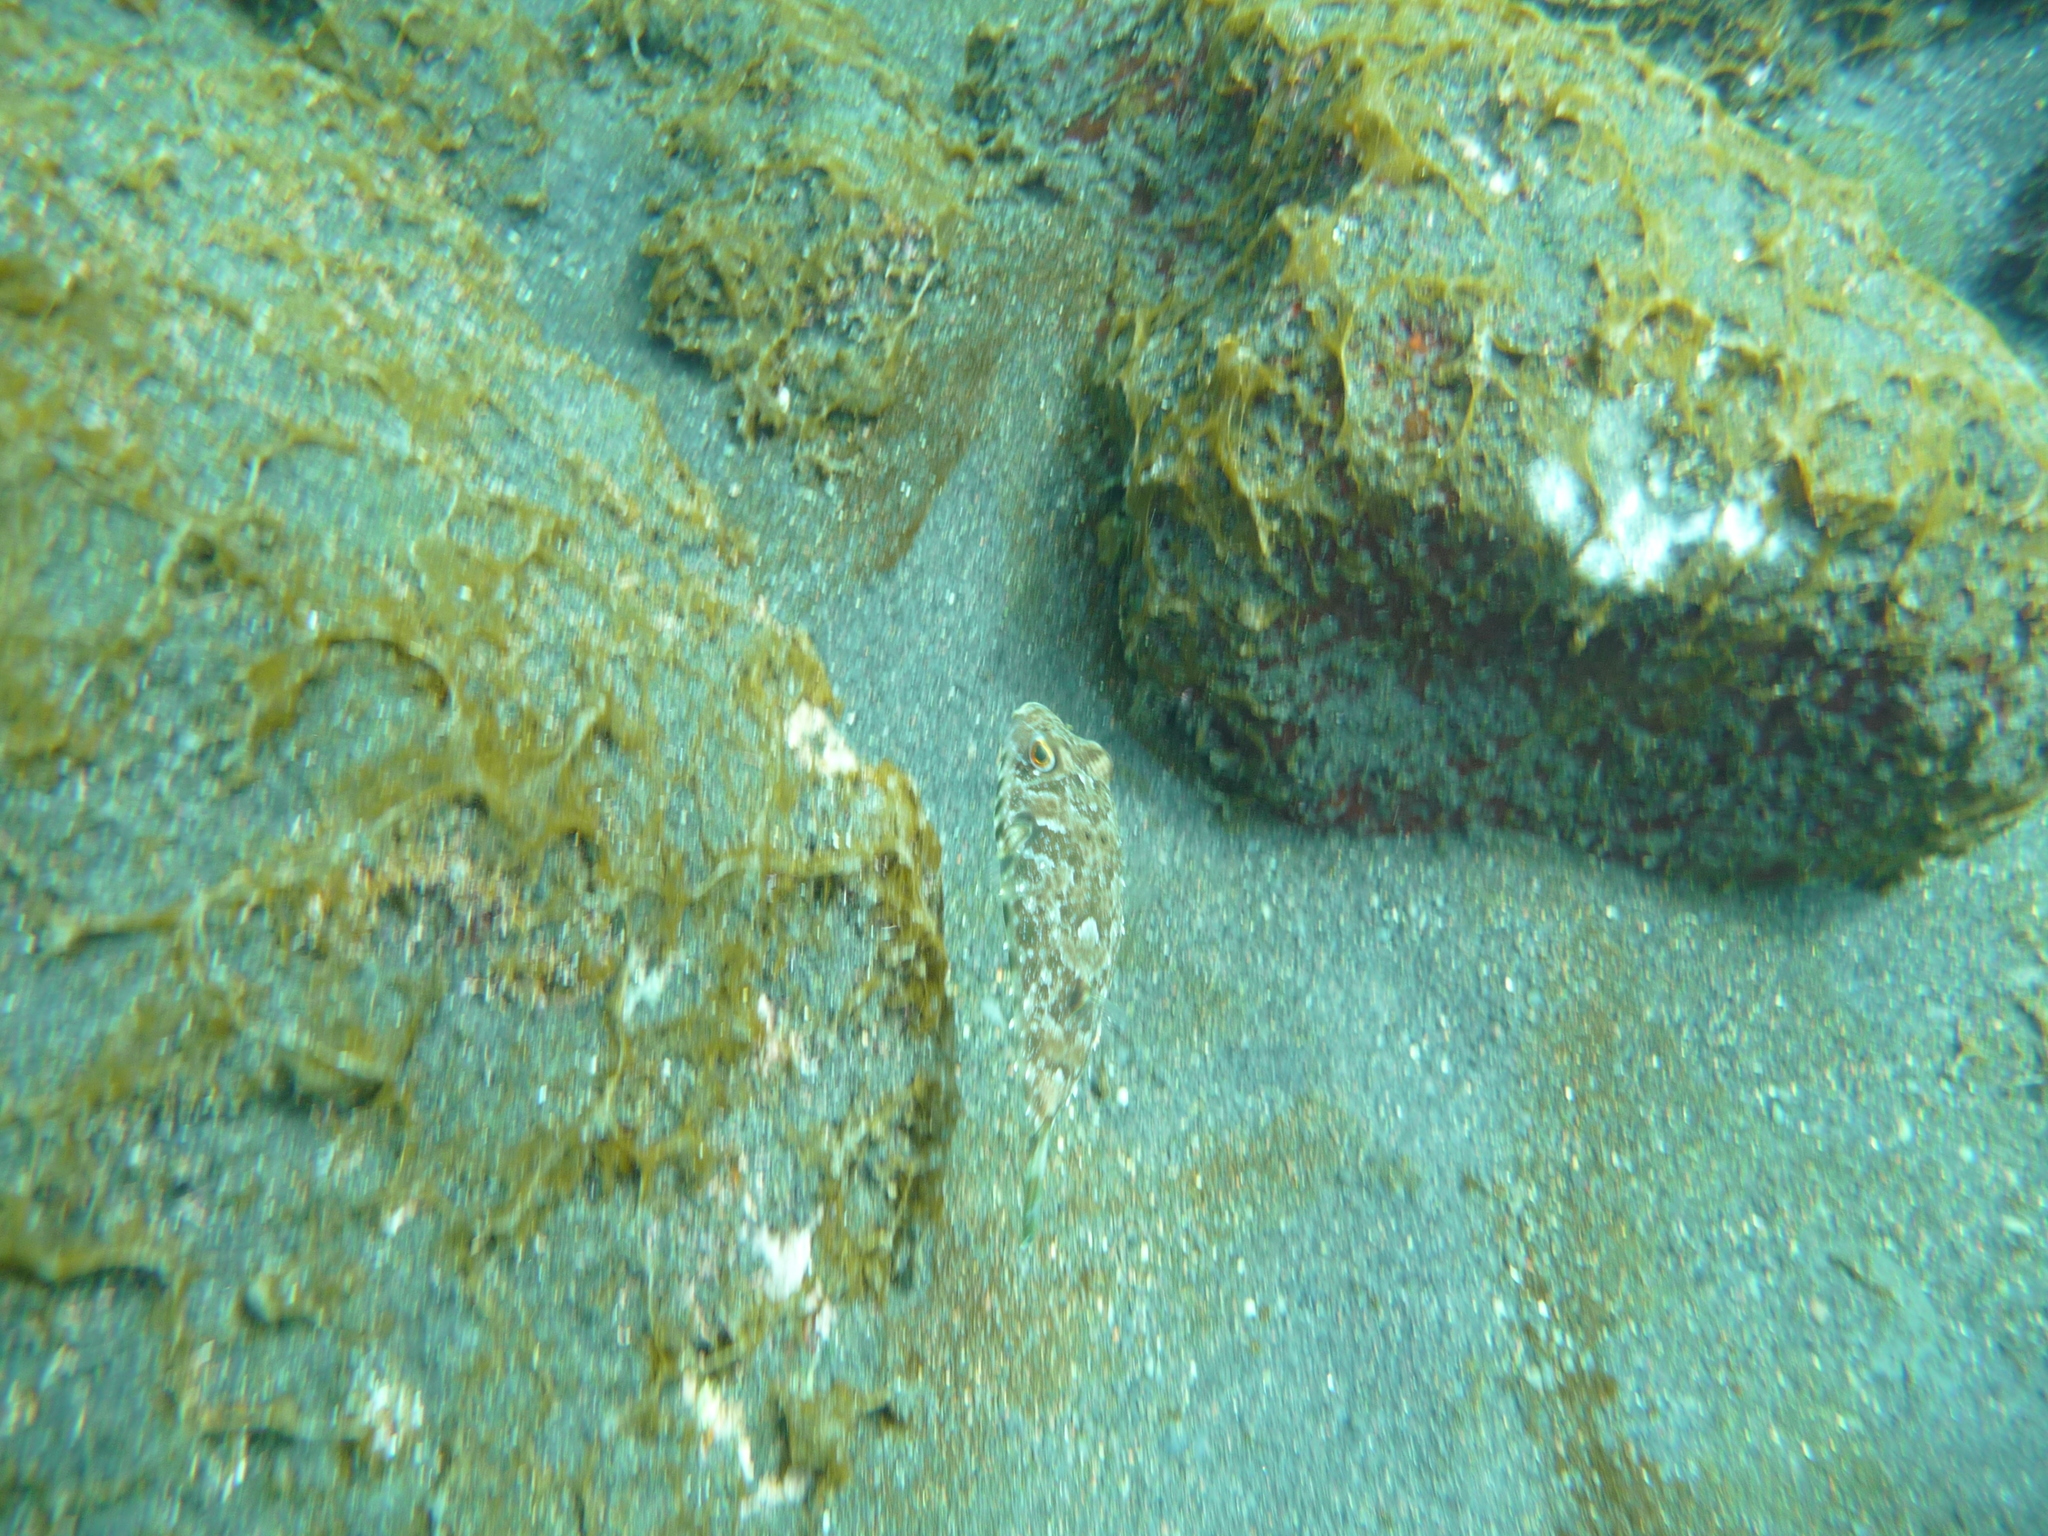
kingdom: Animalia
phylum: Chordata
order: Tetraodontiformes
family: Tetraodontidae
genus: Sphoeroides
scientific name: Sphoeroides marmoratus
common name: Guinean puffer
